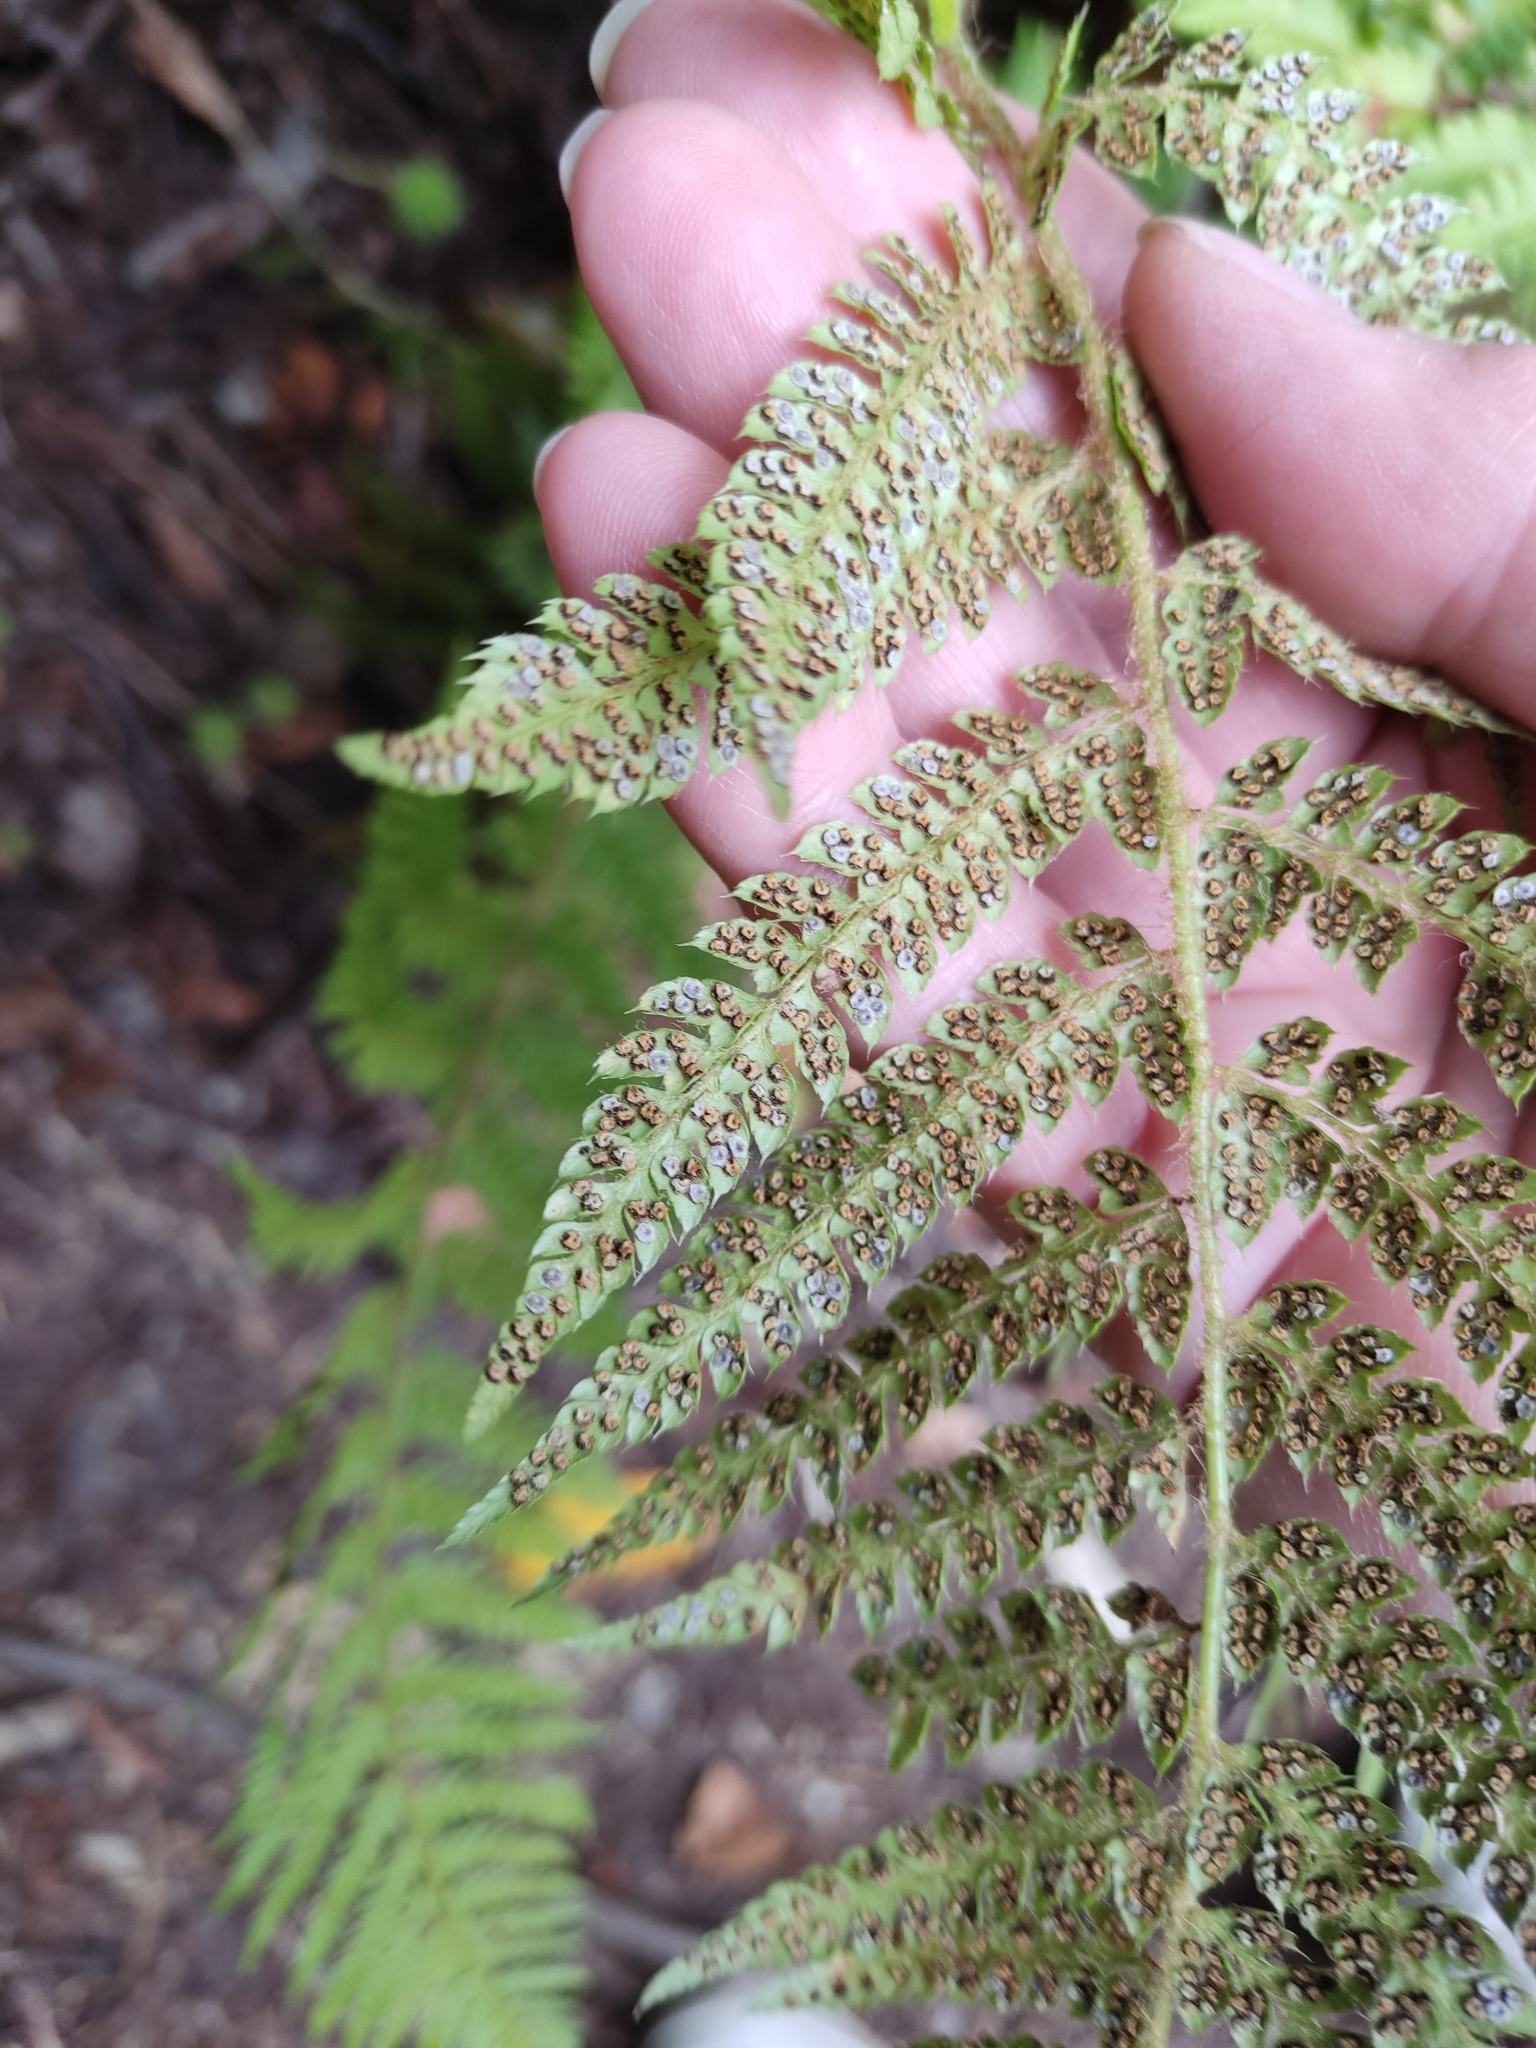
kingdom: Plantae
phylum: Tracheophyta
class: Polypodiopsida
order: Polypodiales
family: Dryopteridaceae
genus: Polystichum
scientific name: Polystichum setiferum
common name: Soft shield-fern
